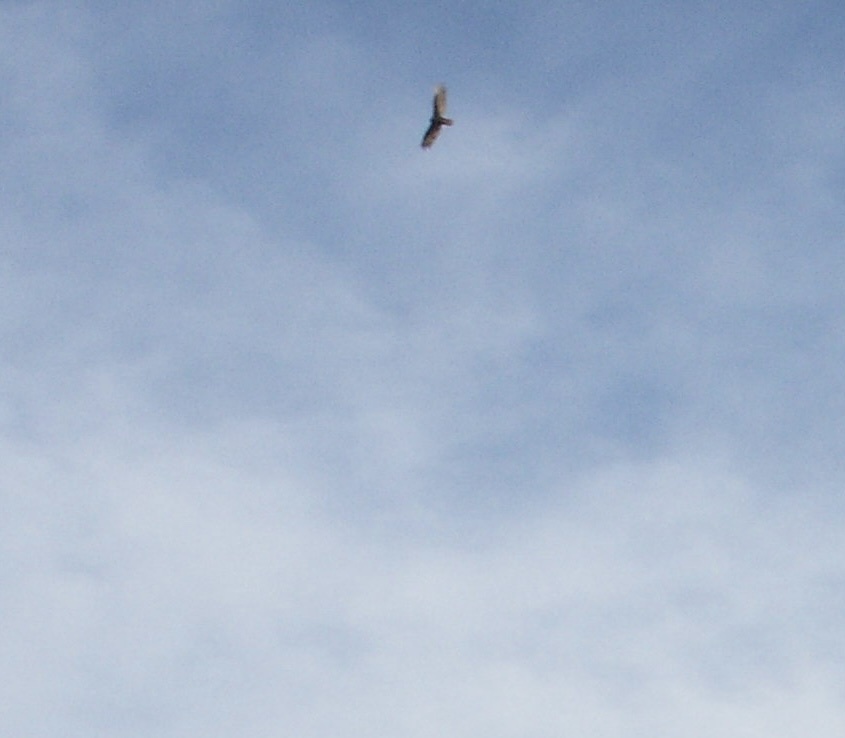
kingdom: Animalia
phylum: Chordata
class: Aves
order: Accipitriformes
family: Cathartidae
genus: Cathartes
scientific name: Cathartes aura
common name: Turkey vulture
